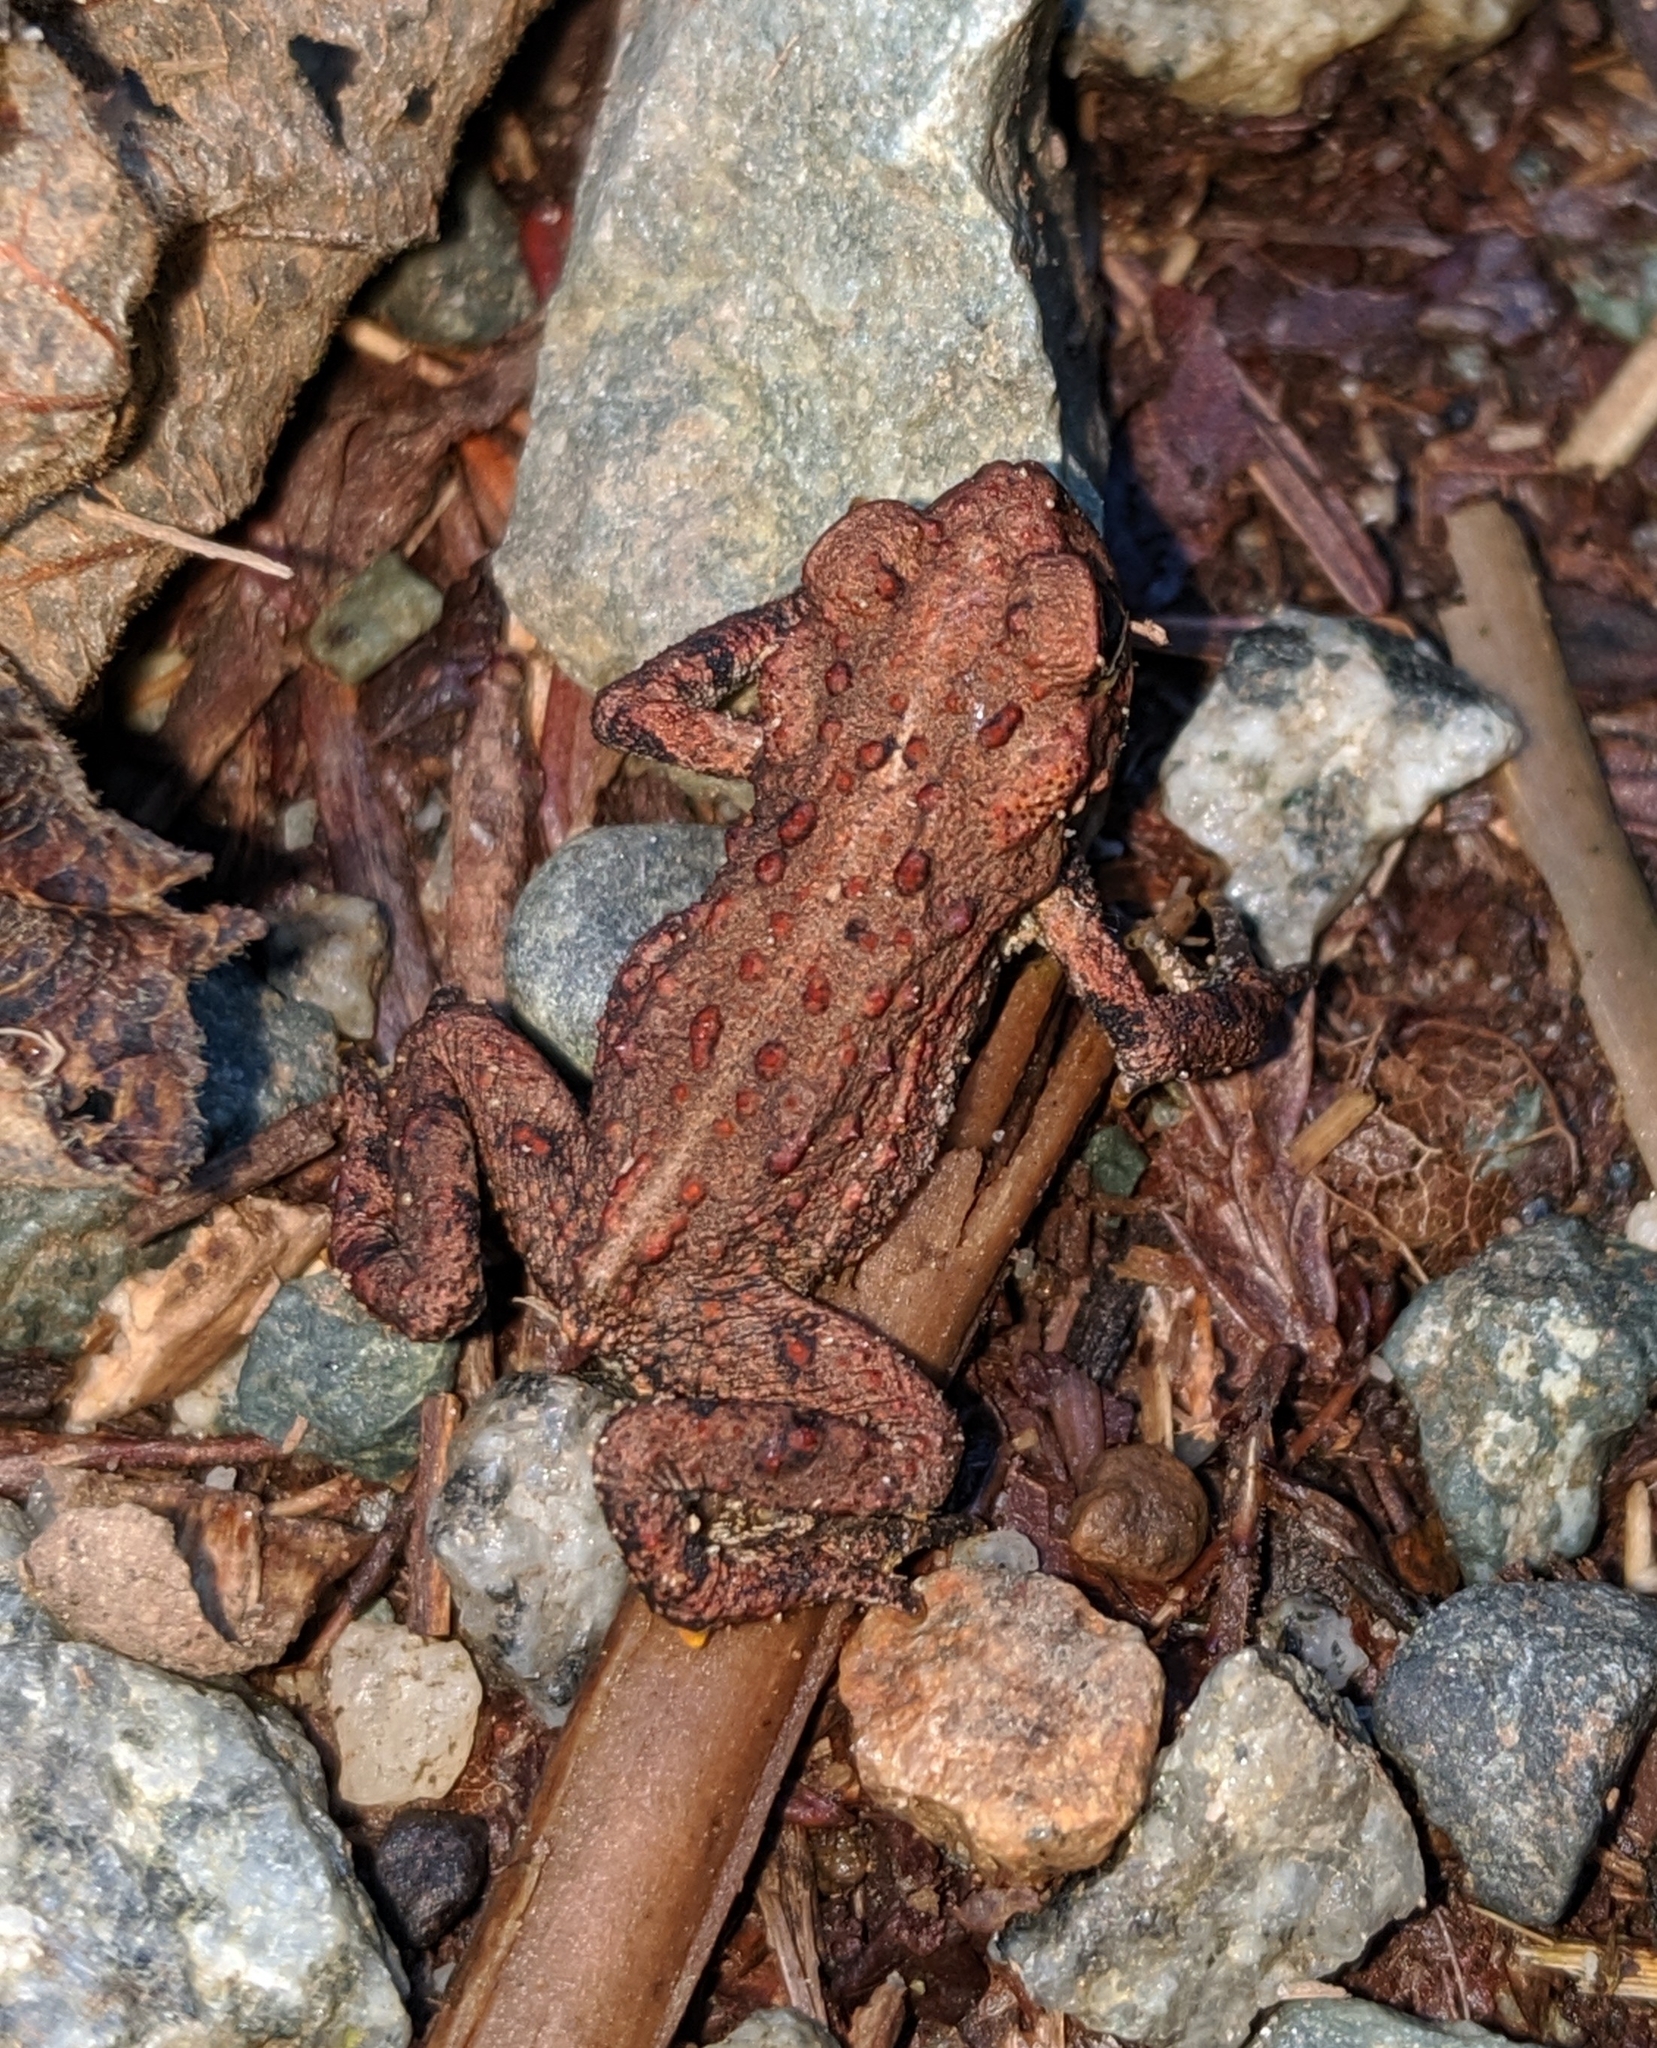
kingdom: Animalia
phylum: Chordata
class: Amphibia
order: Anura
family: Bufonidae
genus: Anaxyrus
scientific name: Anaxyrus boreas
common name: Western toad
